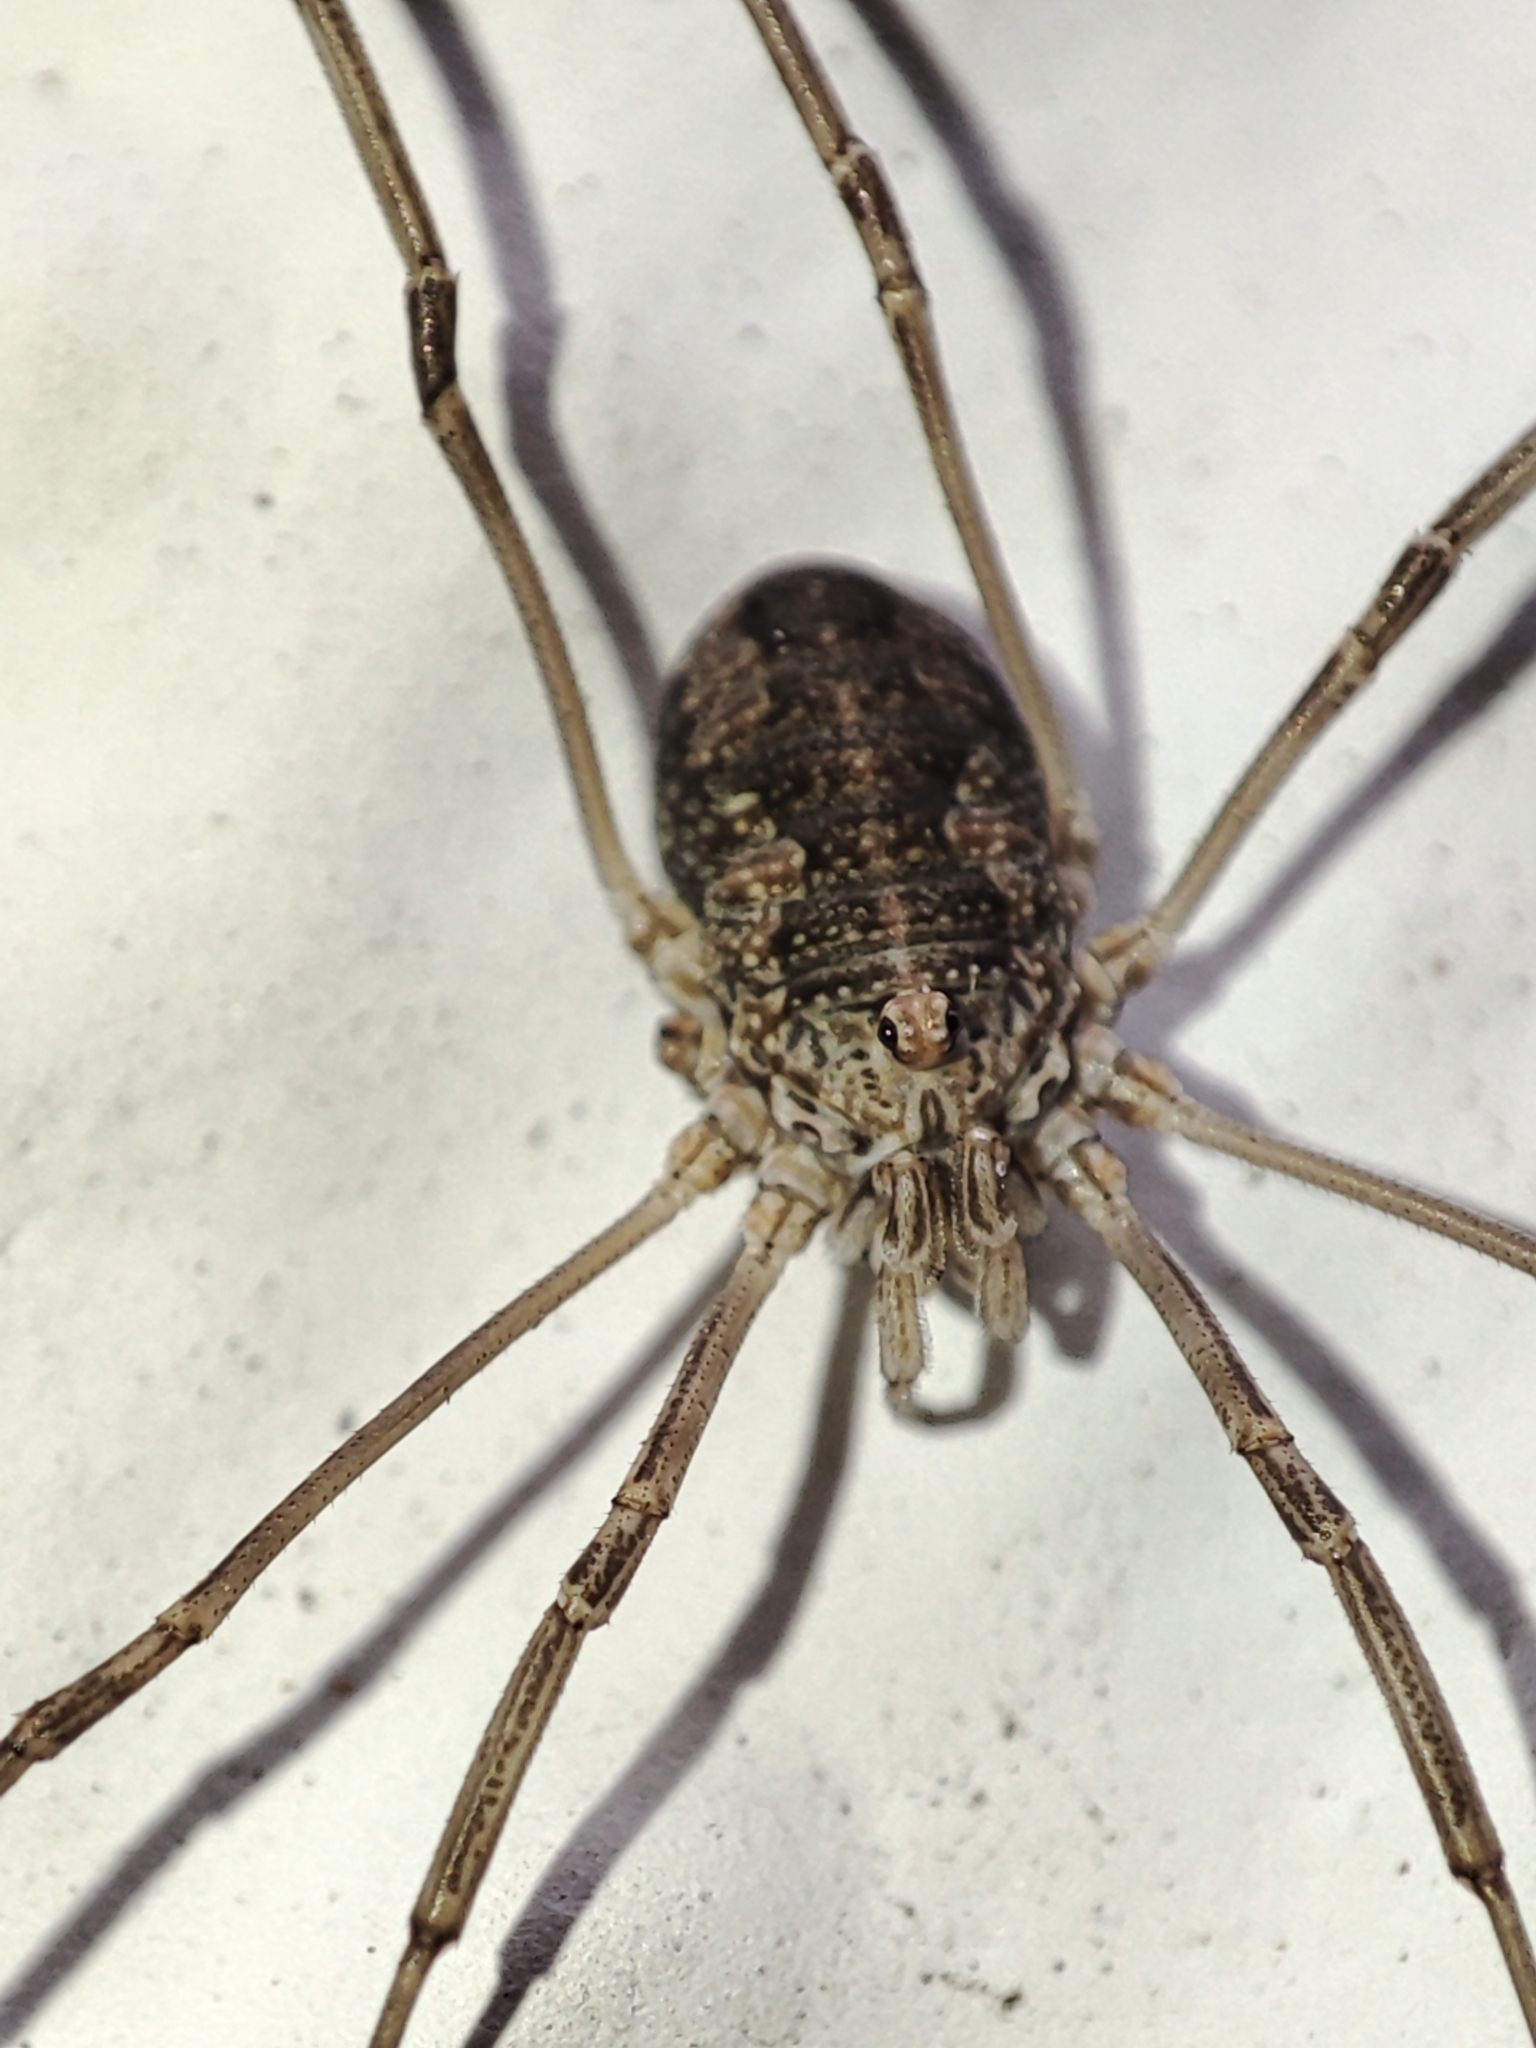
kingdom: Animalia
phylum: Arthropoda
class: Arachnida
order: Opiliones
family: Phalangiidae
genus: Phalangium
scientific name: Phalangium opilio
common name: Daddy longleg
